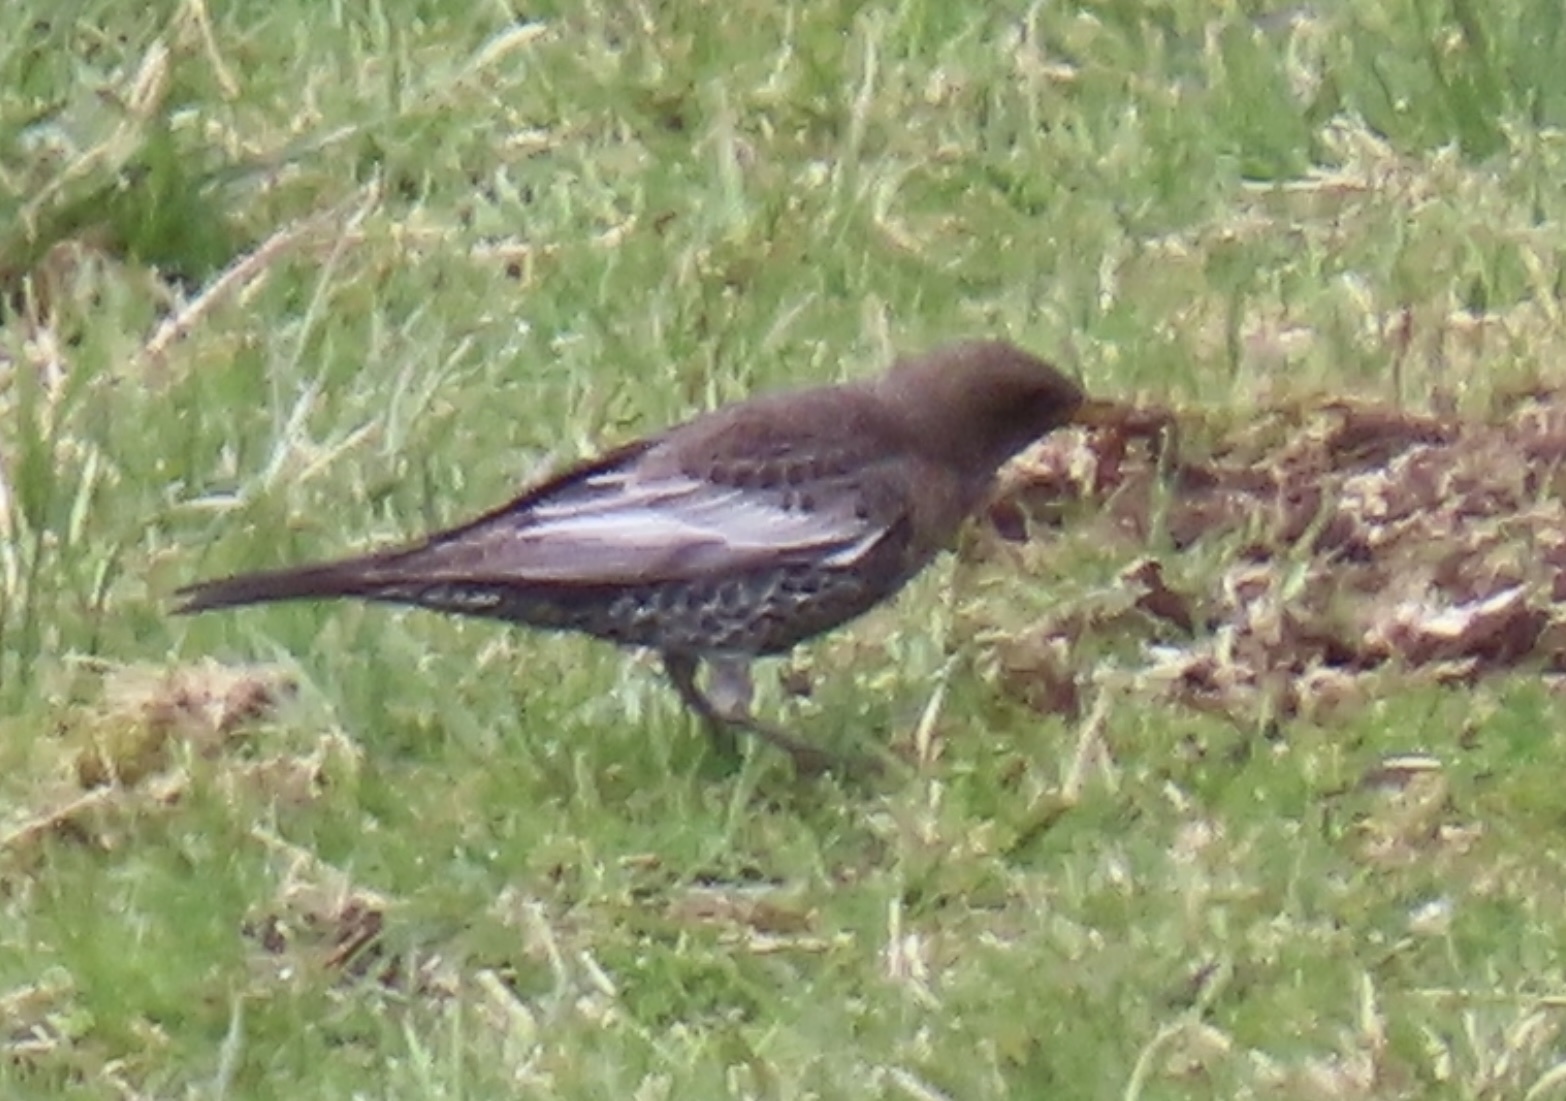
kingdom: Animalia
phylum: Chordata
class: Aves
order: Passeriformes
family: Turdidae
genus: Turdus
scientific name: Turdus torquatus
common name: Ring ouzel
